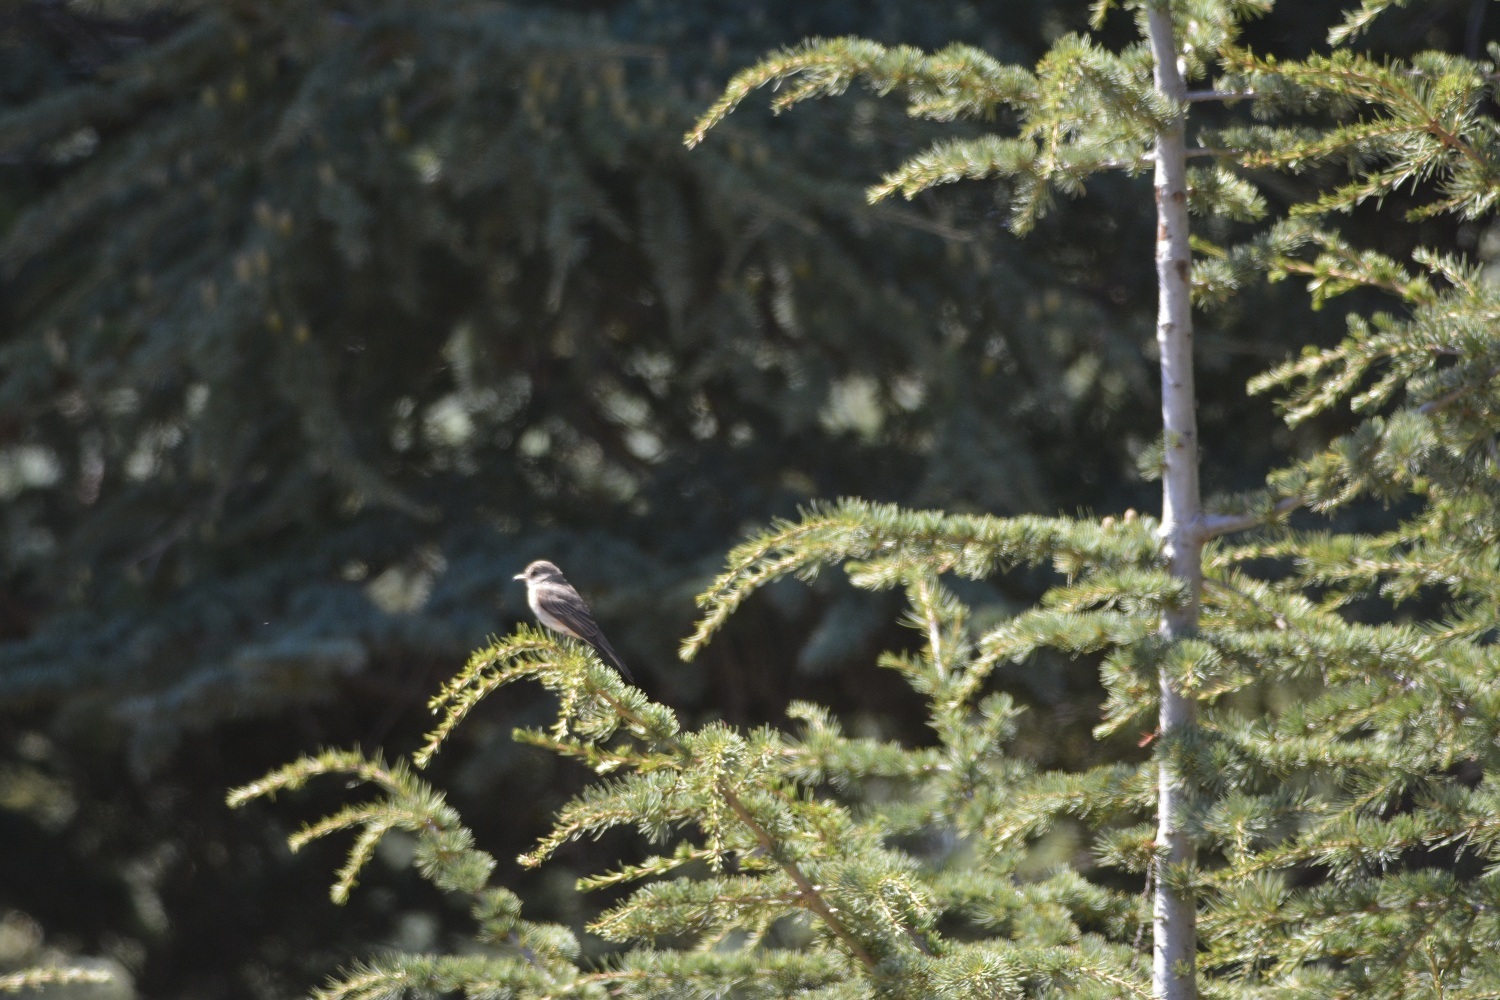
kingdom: Animalia
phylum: Chordata
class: Aves
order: Passeriformes
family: Muscicapidae
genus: Muscicapa
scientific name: Muscicapa striata
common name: Spotted flycatcher
